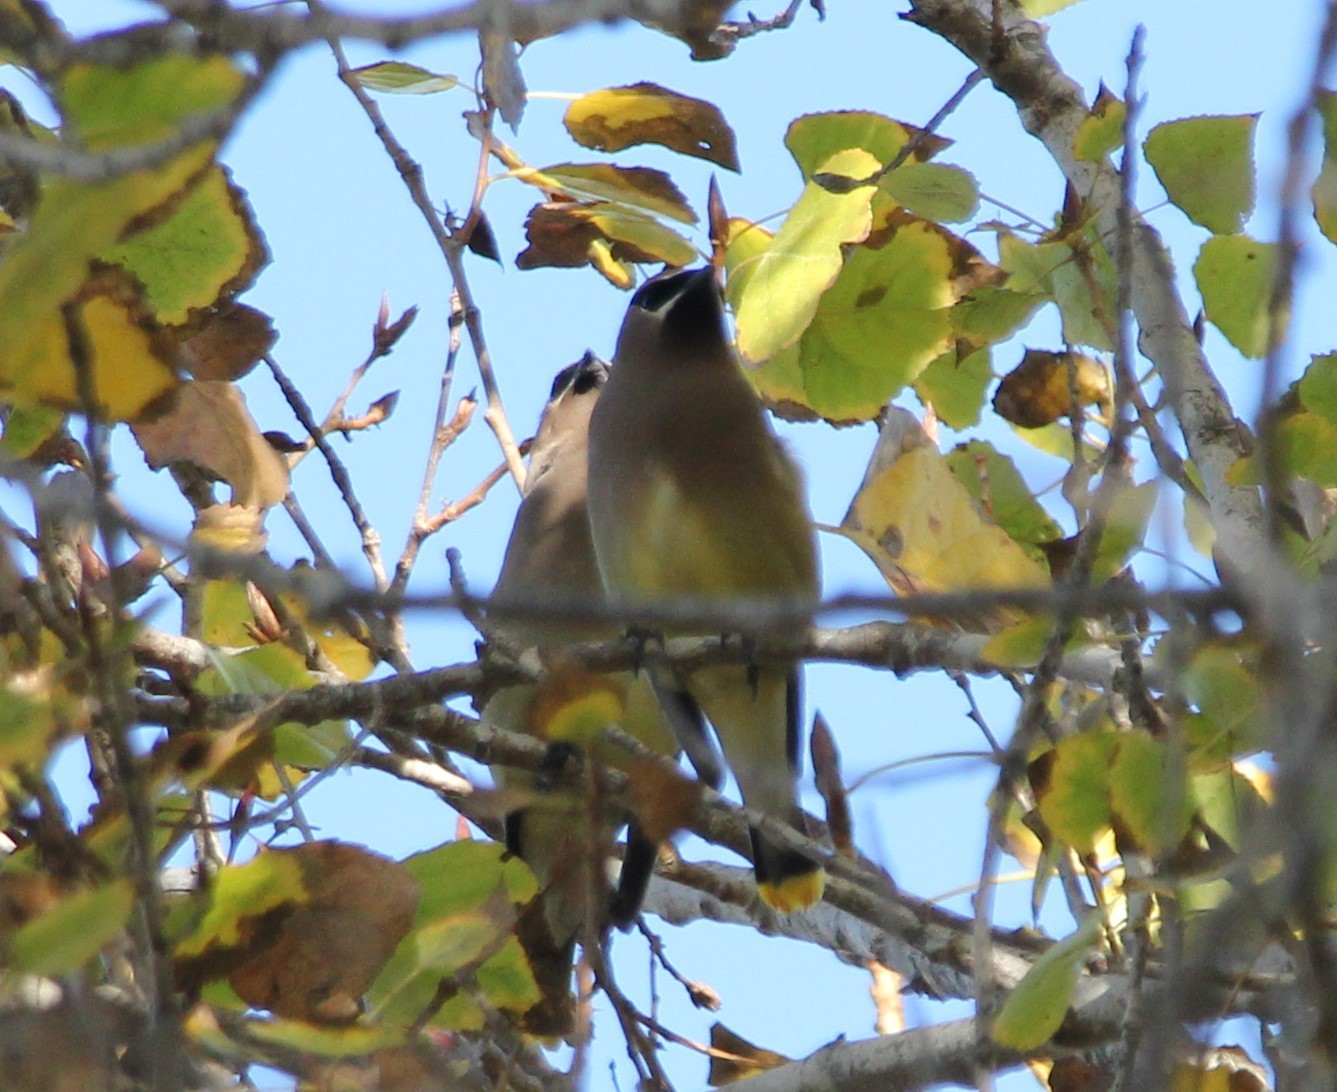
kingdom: Animalia
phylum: Chordata
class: Aves
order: Passeriformes
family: Bombycillidae
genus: Bombycilla
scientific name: Bombycilla cedrorum
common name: Cedar waxwing
